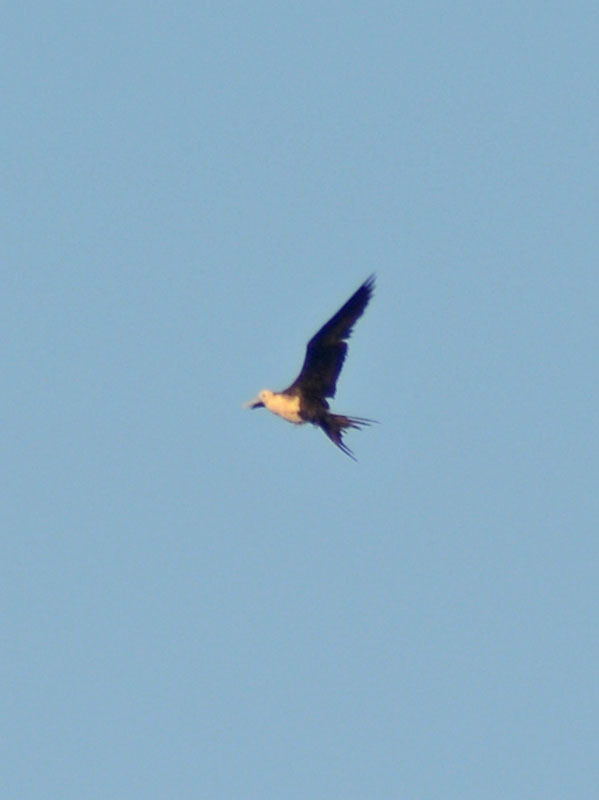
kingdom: Animalia
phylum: Chordata
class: Aves
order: Suliformes
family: Fregatidae
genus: Fregata
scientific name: Fregata magnificens
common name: Magnificent frigatebird
